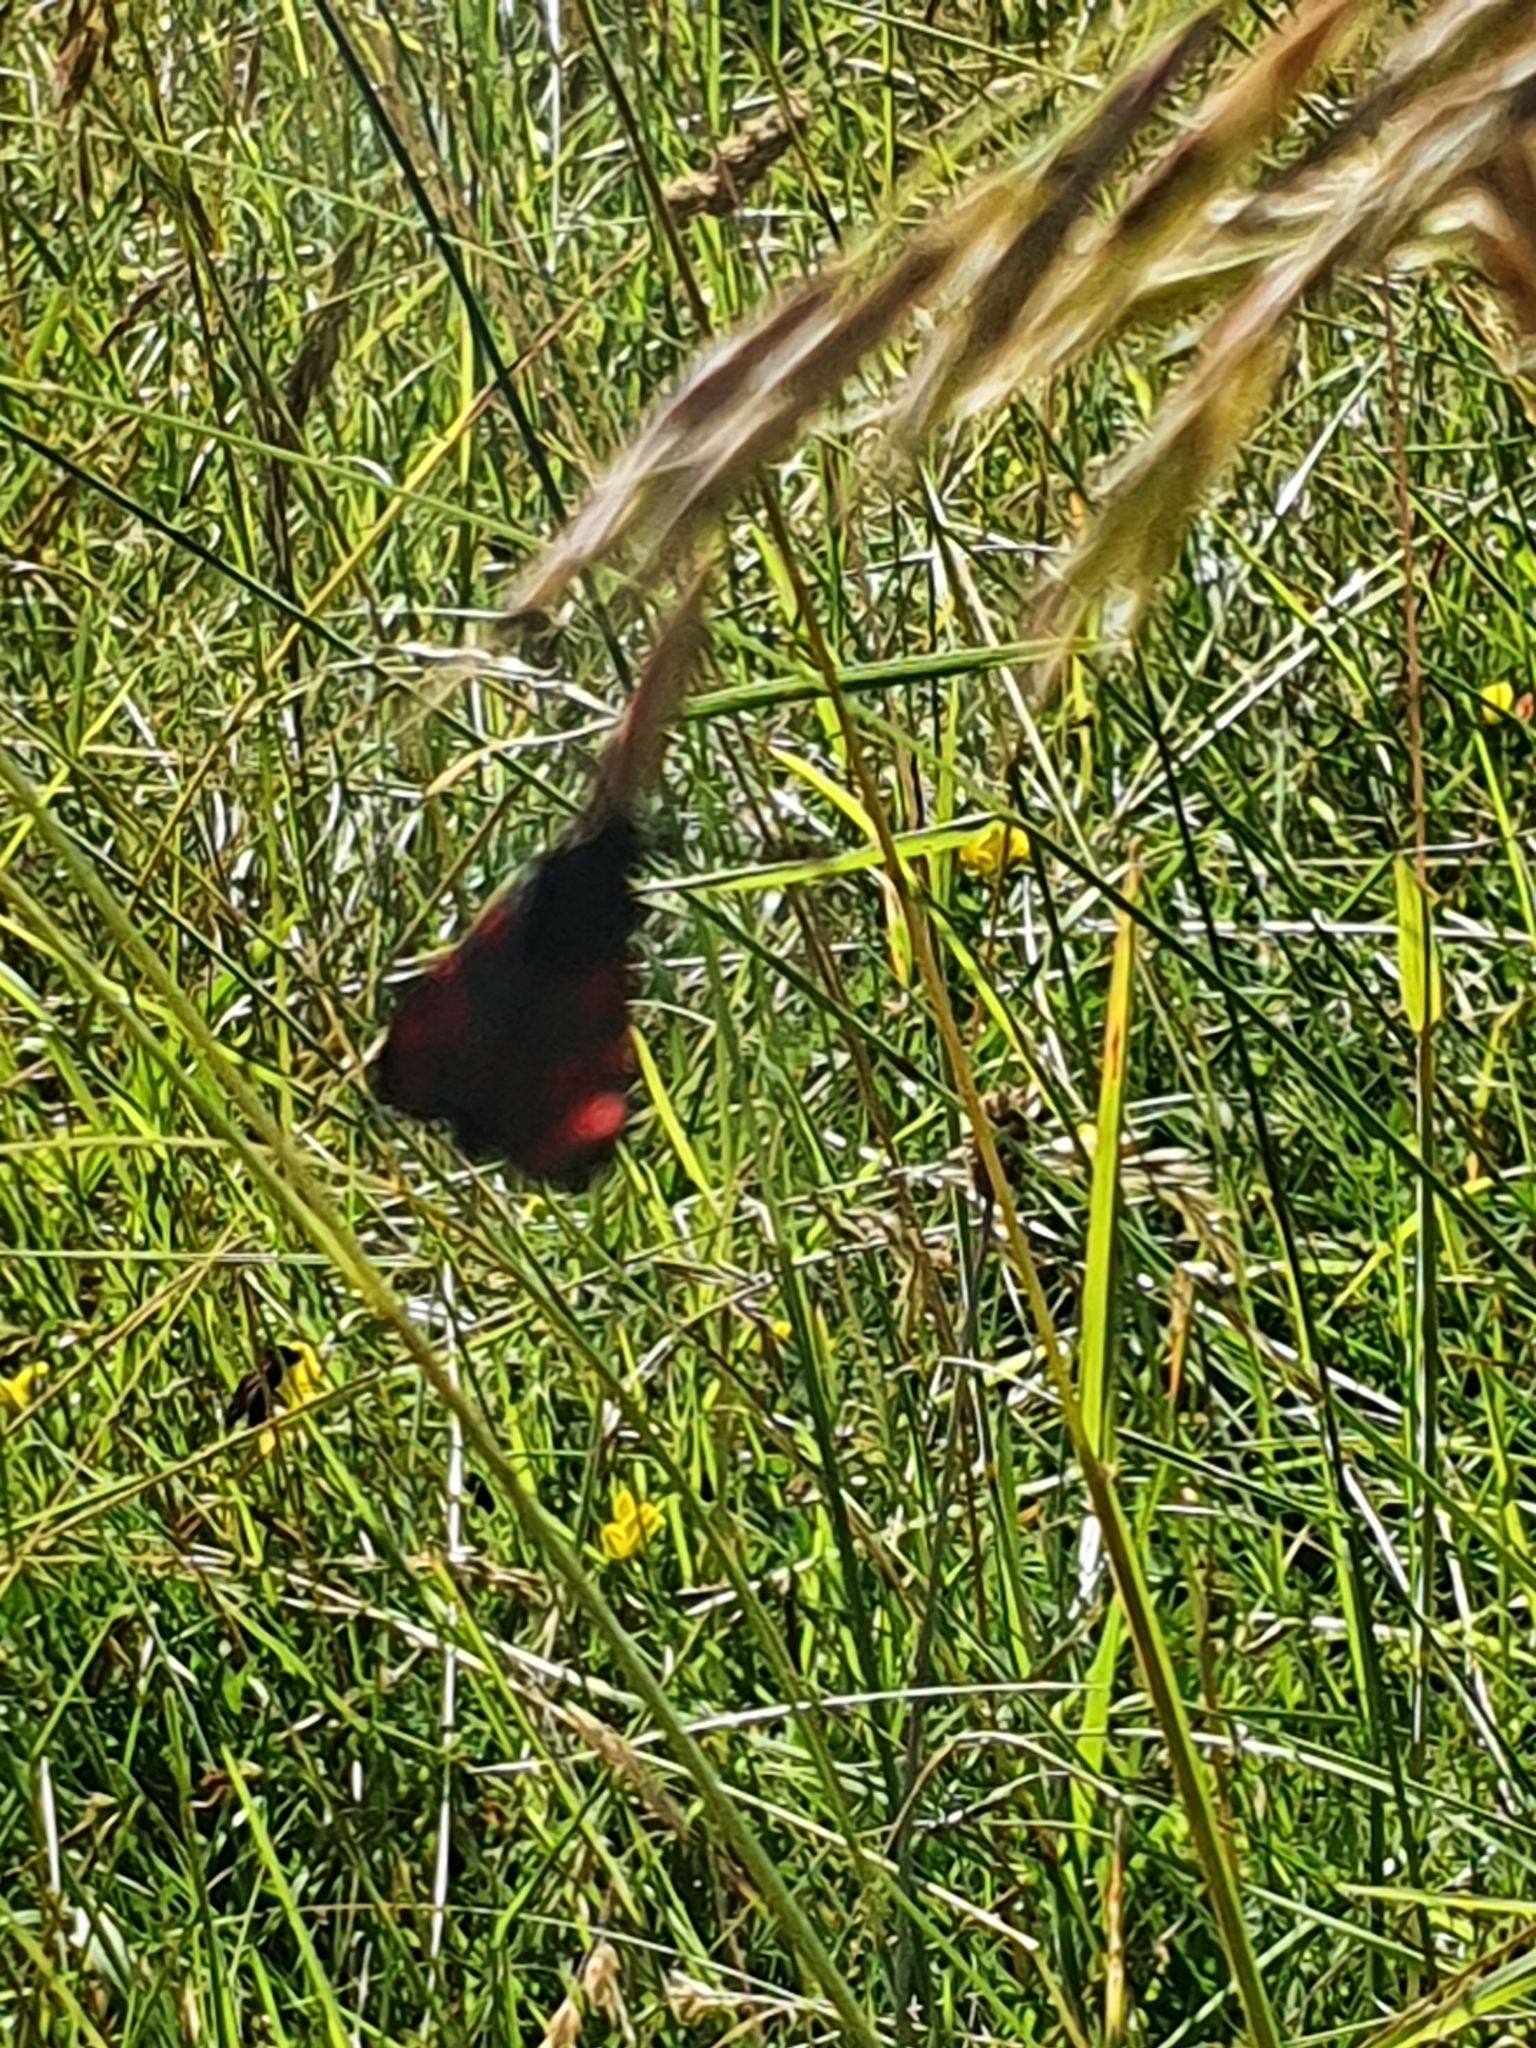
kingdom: Animalia
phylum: Arthropoda
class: Insecta
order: Lepidoptera
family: Erebidae
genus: Tyria
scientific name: Tyria jacobaeae
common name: Cinnabar
